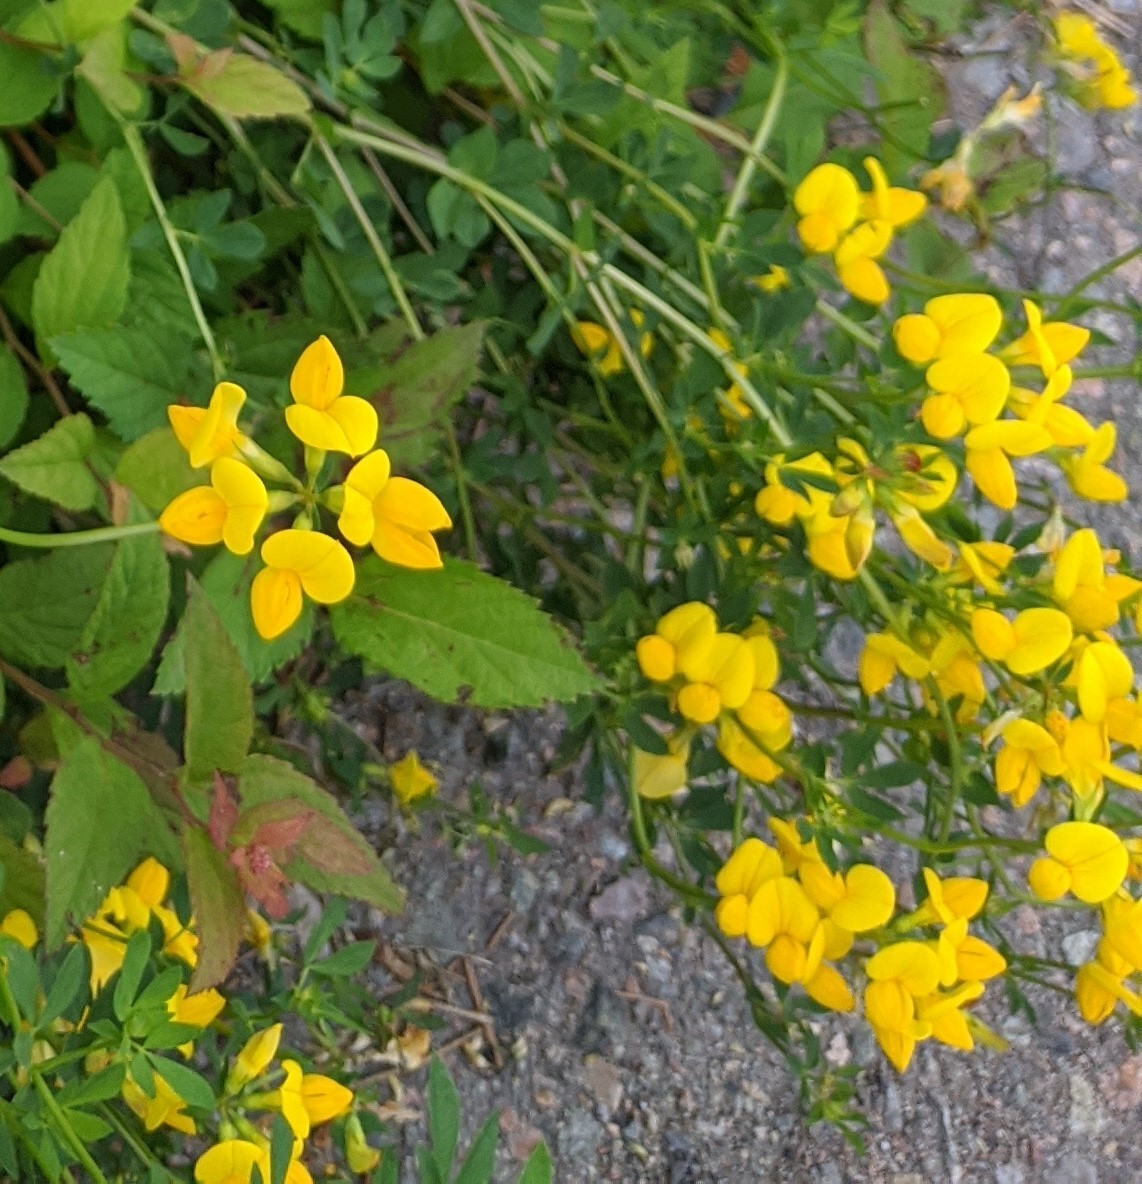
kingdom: Plantae
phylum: Tracheophyta
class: Magnoliopsida
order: Fabales
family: Fabaceae
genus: Lotus
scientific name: Lotus corniculatus
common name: Common bird's-foot-trefoil
